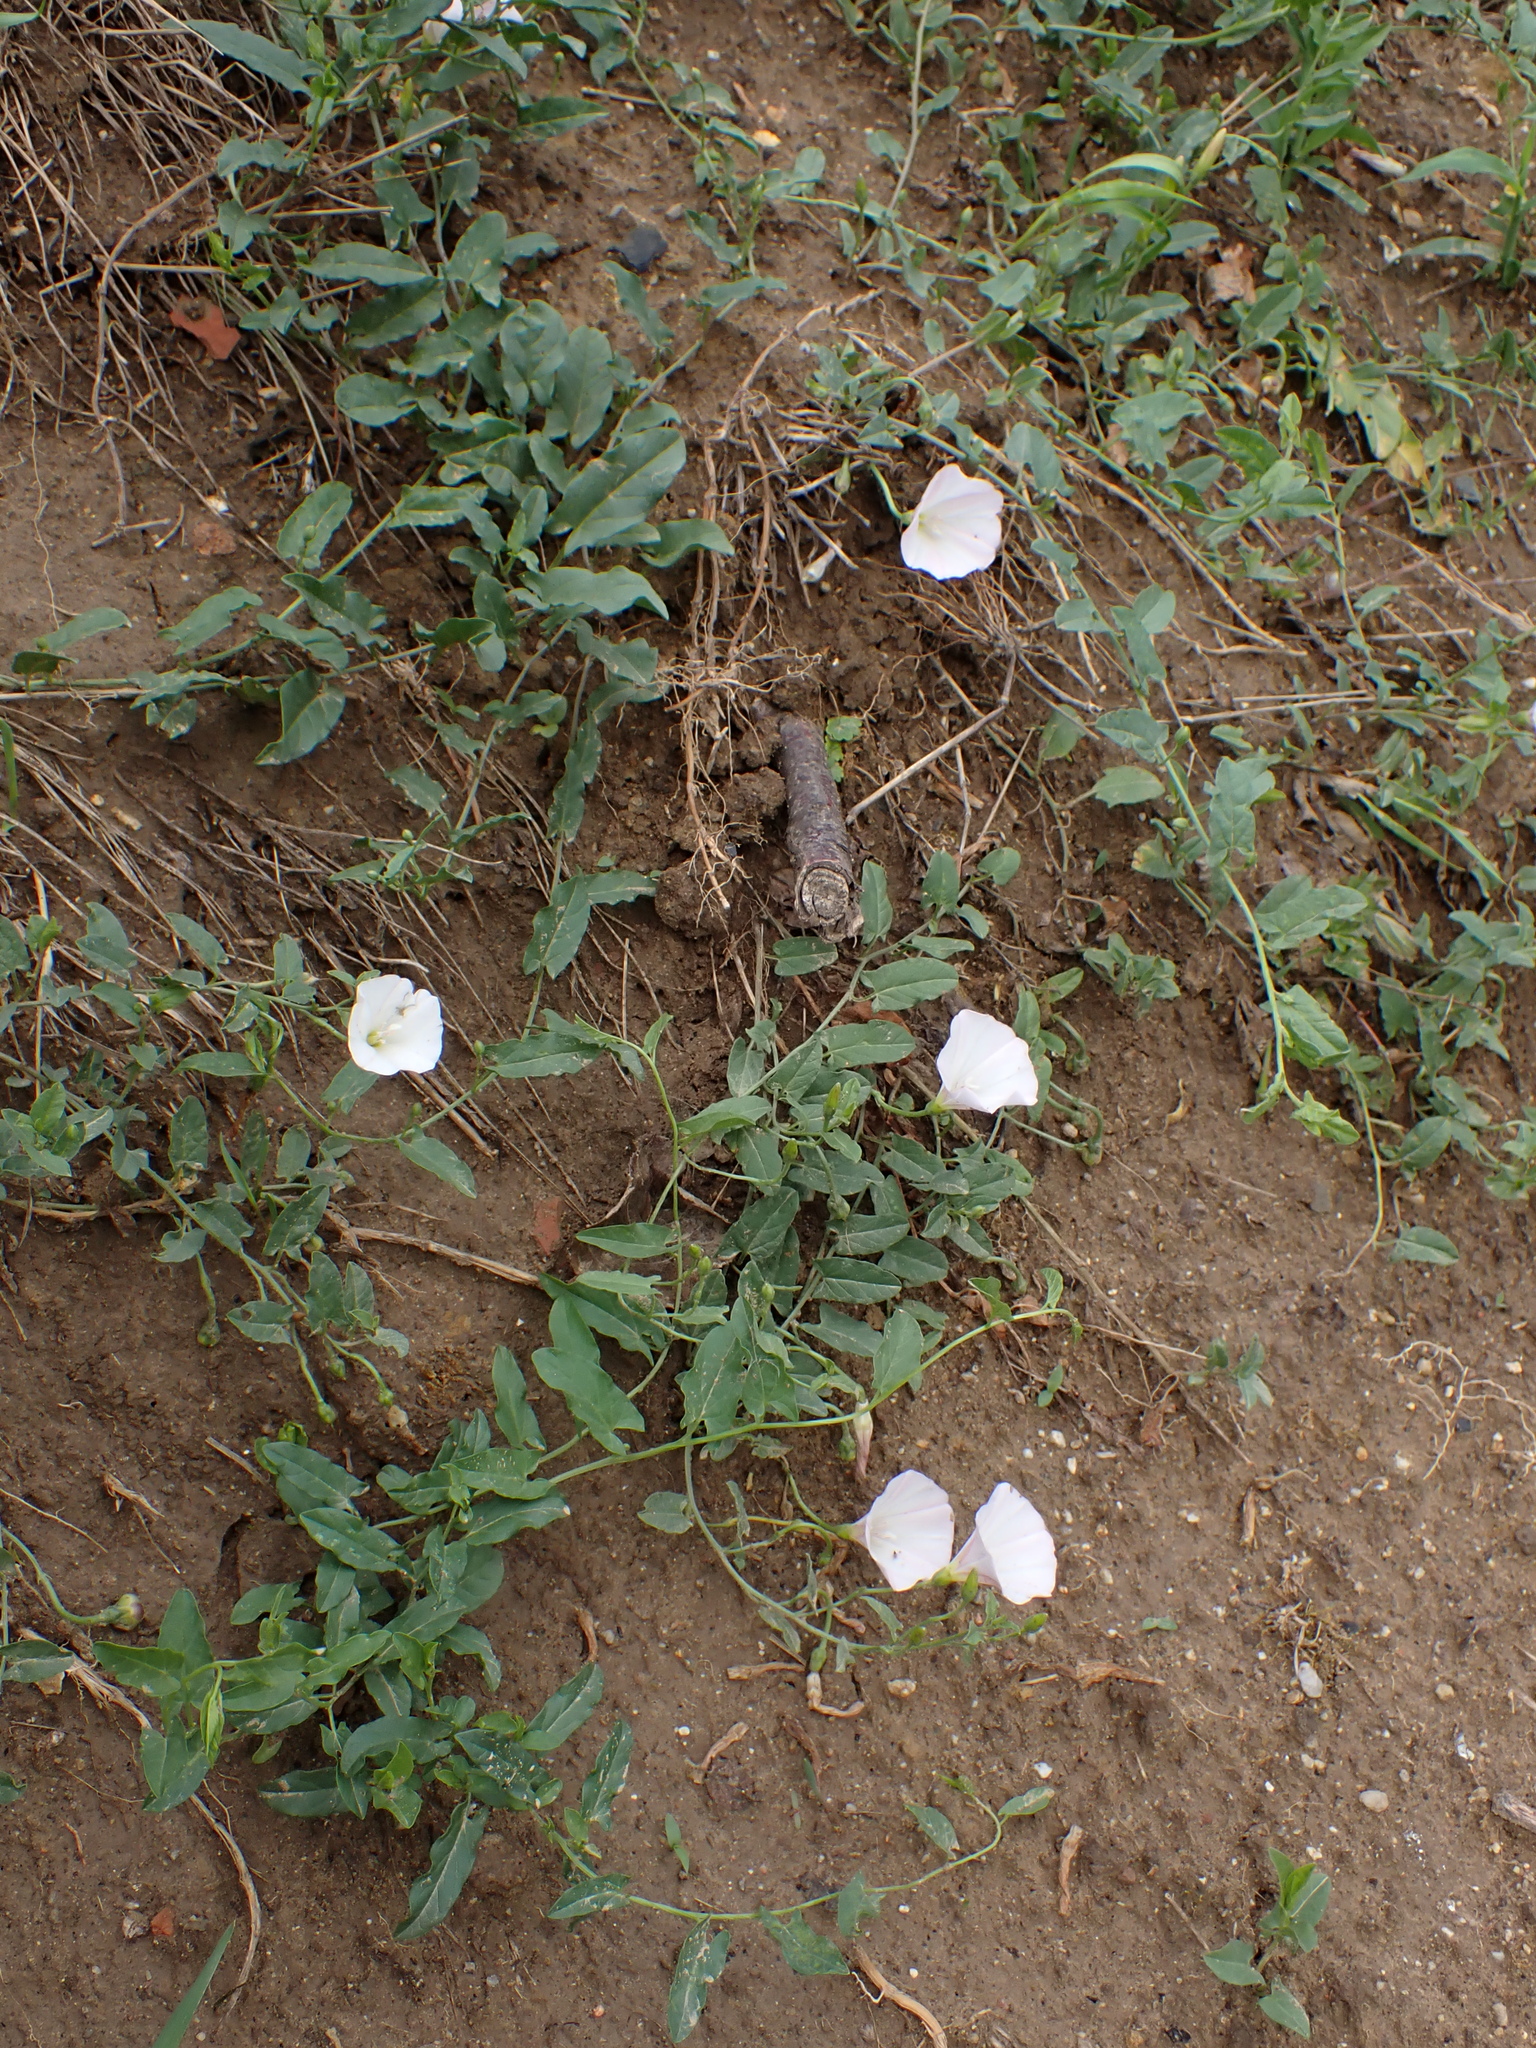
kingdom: Plantae
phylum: Tracheophyta
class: Magnoliopsida
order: Solanales
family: Convolvulaceae
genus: Convolvulus
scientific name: Convolvulus arvensis
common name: Field bindweed
